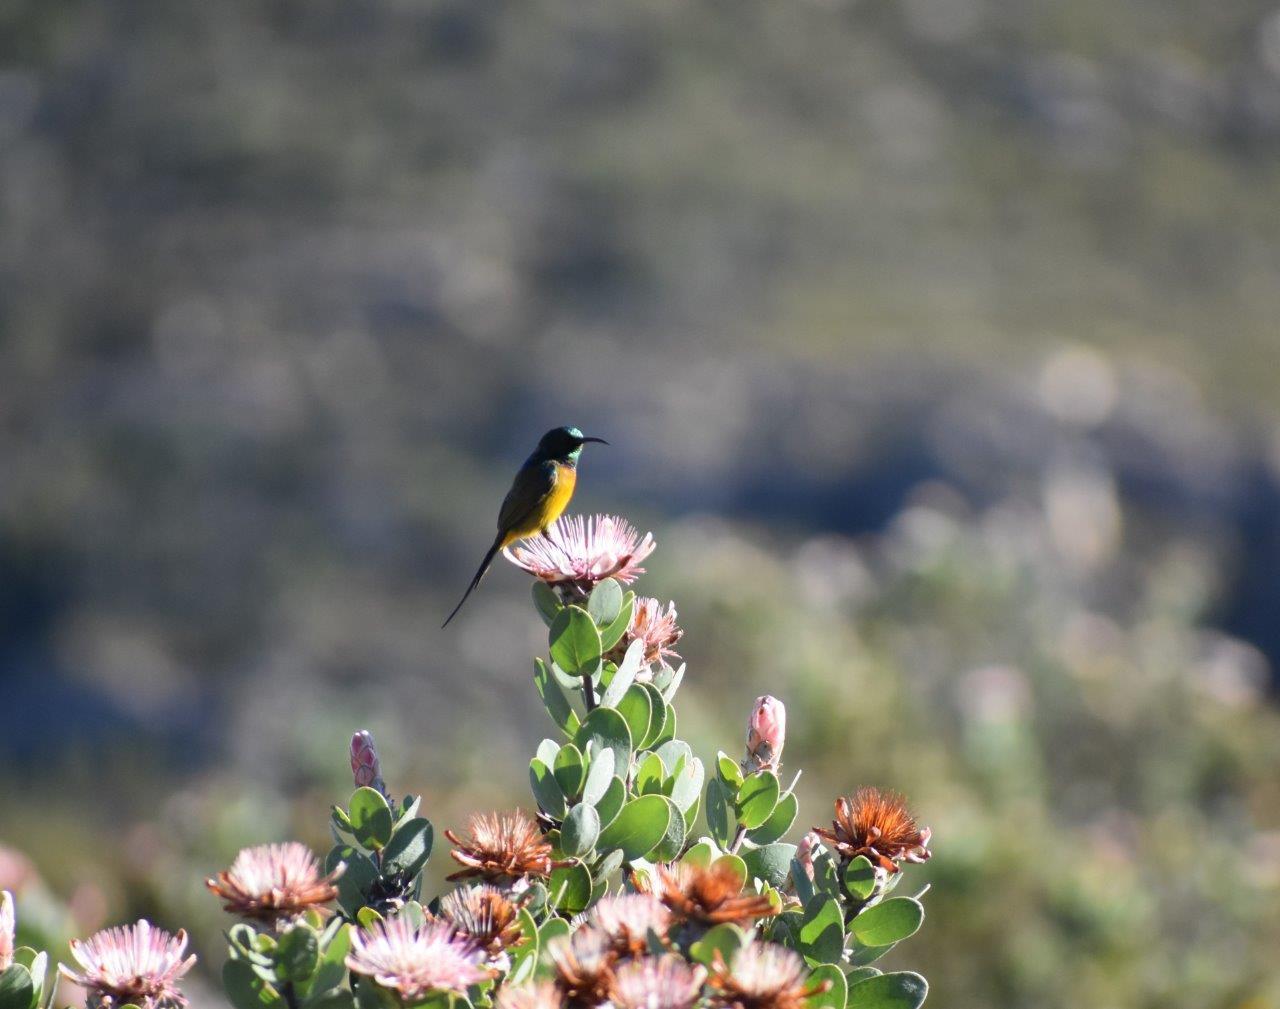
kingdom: Animalia
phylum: Chordata
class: Aves
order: Passeriformes
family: Nectariniidae
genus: Anthobaphes
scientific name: Anthobaphes violacea
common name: Orange-breasted sunbird
